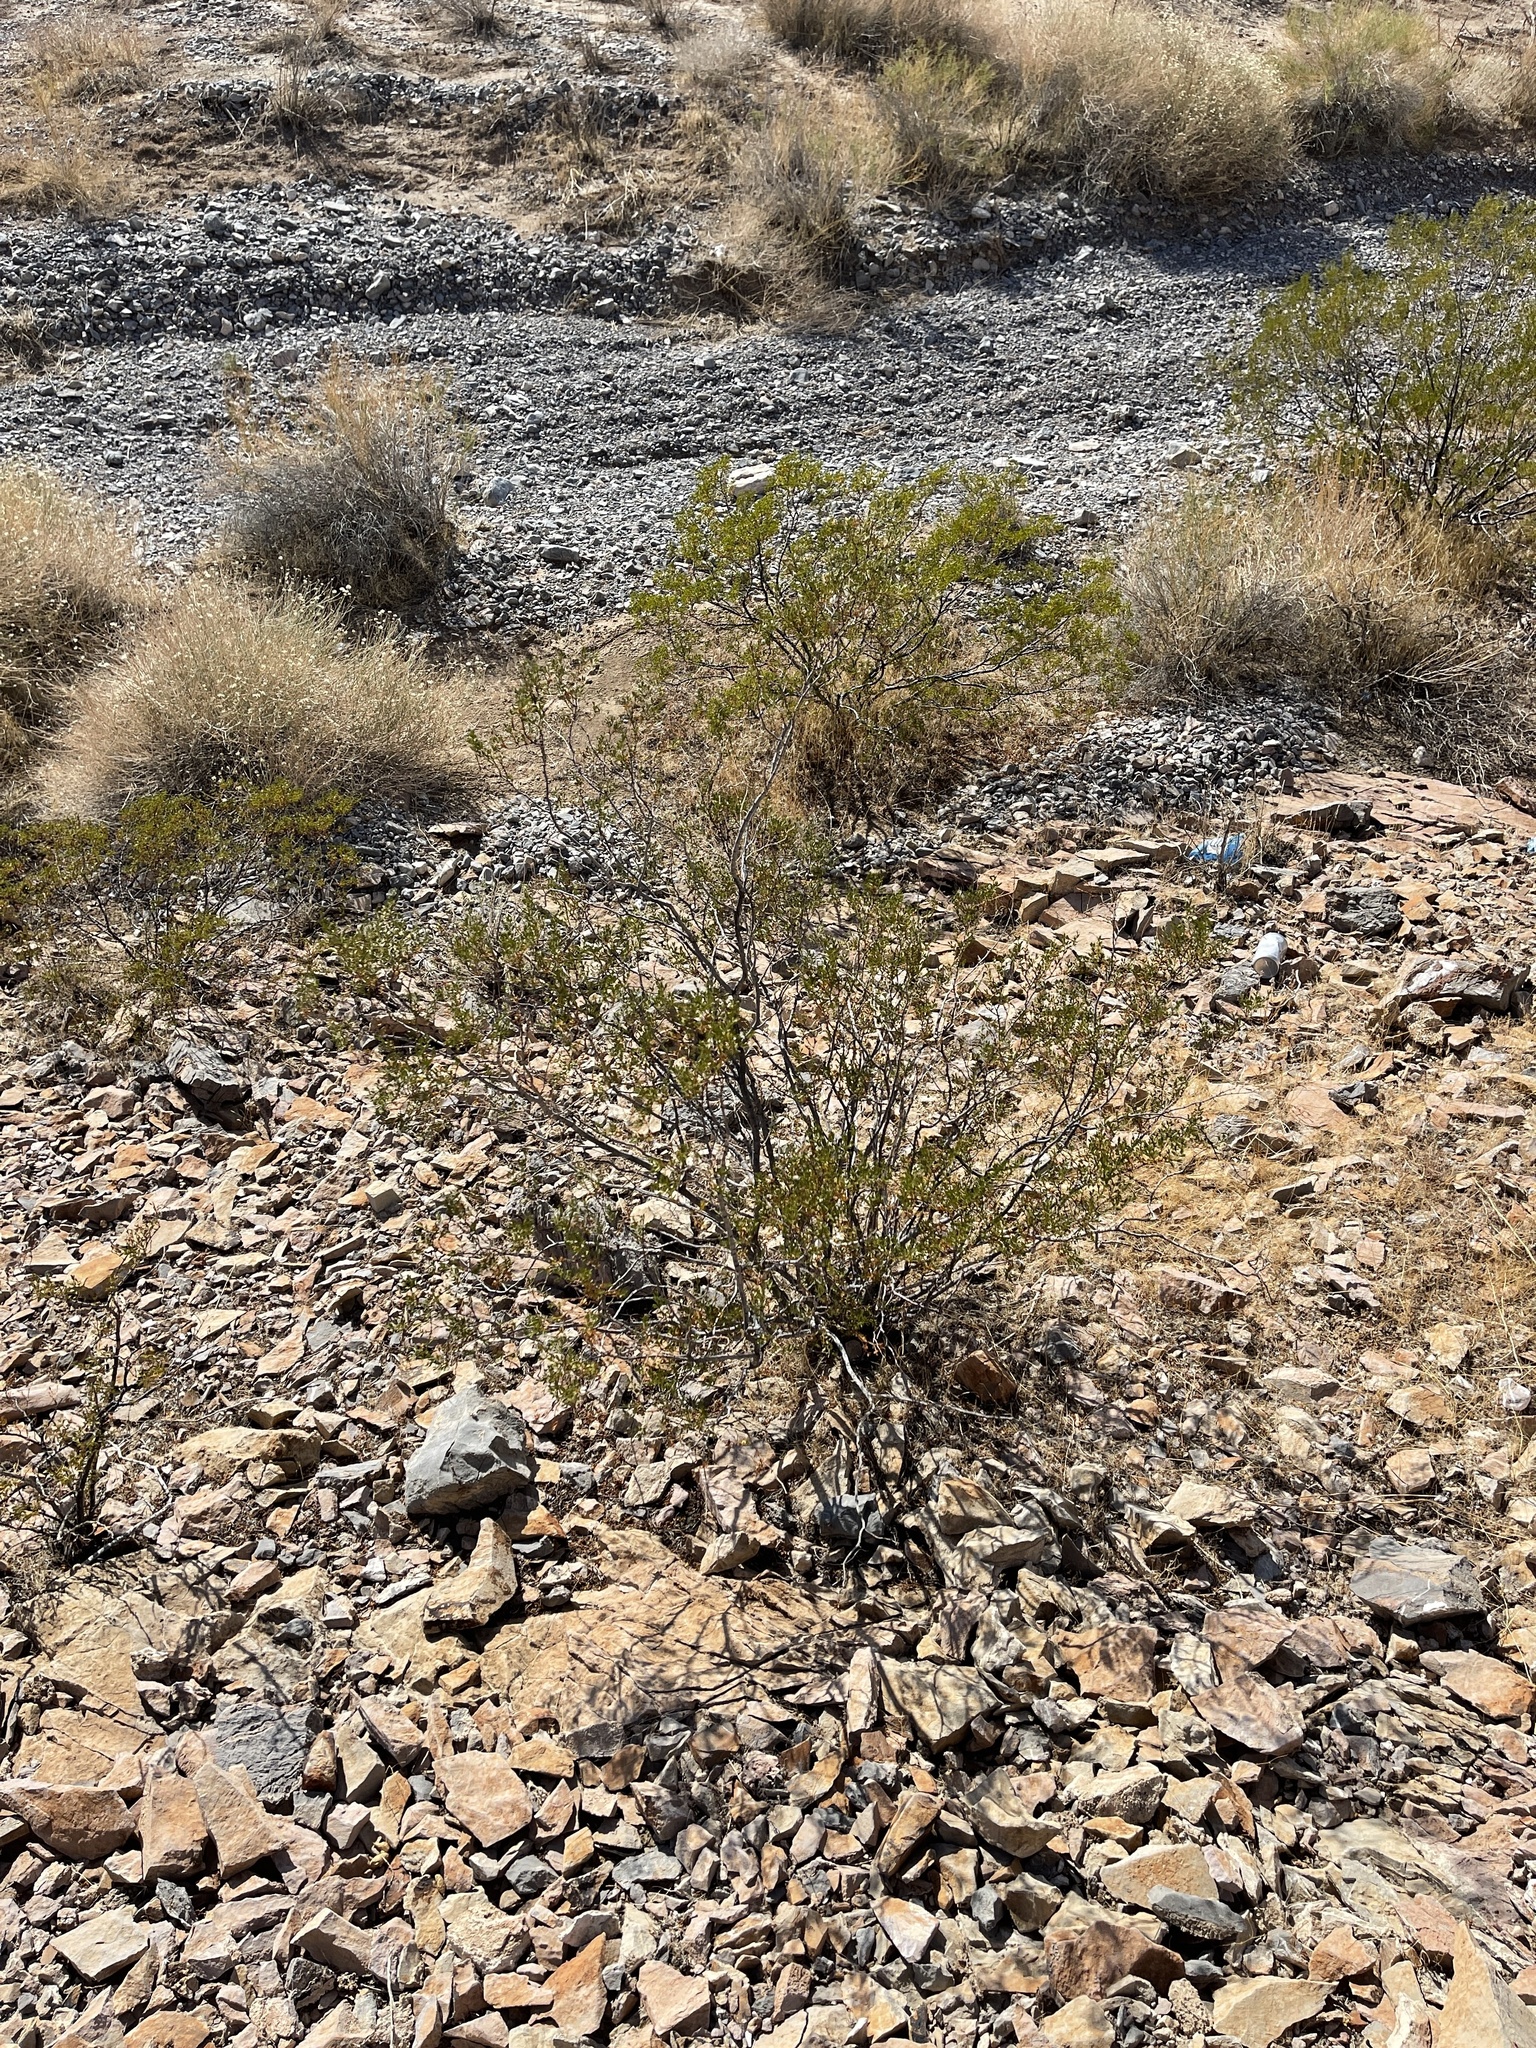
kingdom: Plantae
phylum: Tracheophyta
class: Magnoliopsida
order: Zygophyllales
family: Zygophyllaceae
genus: Larrea
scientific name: Larrea tridentata
